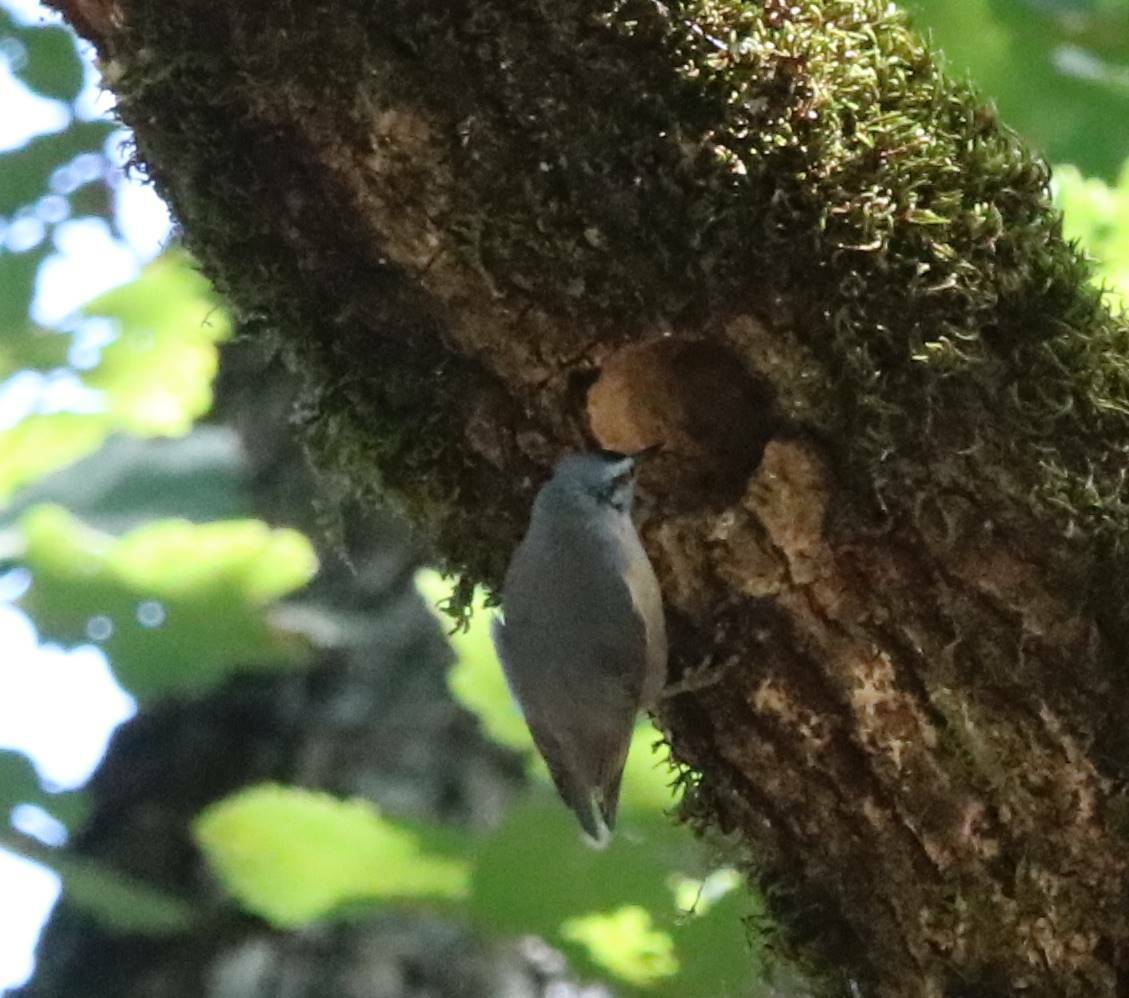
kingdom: Animalia
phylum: Chordata
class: Aves
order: Passeriformes
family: Sittidae
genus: Sitta
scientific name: Sitta ledanti
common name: Algerian nuthatch
